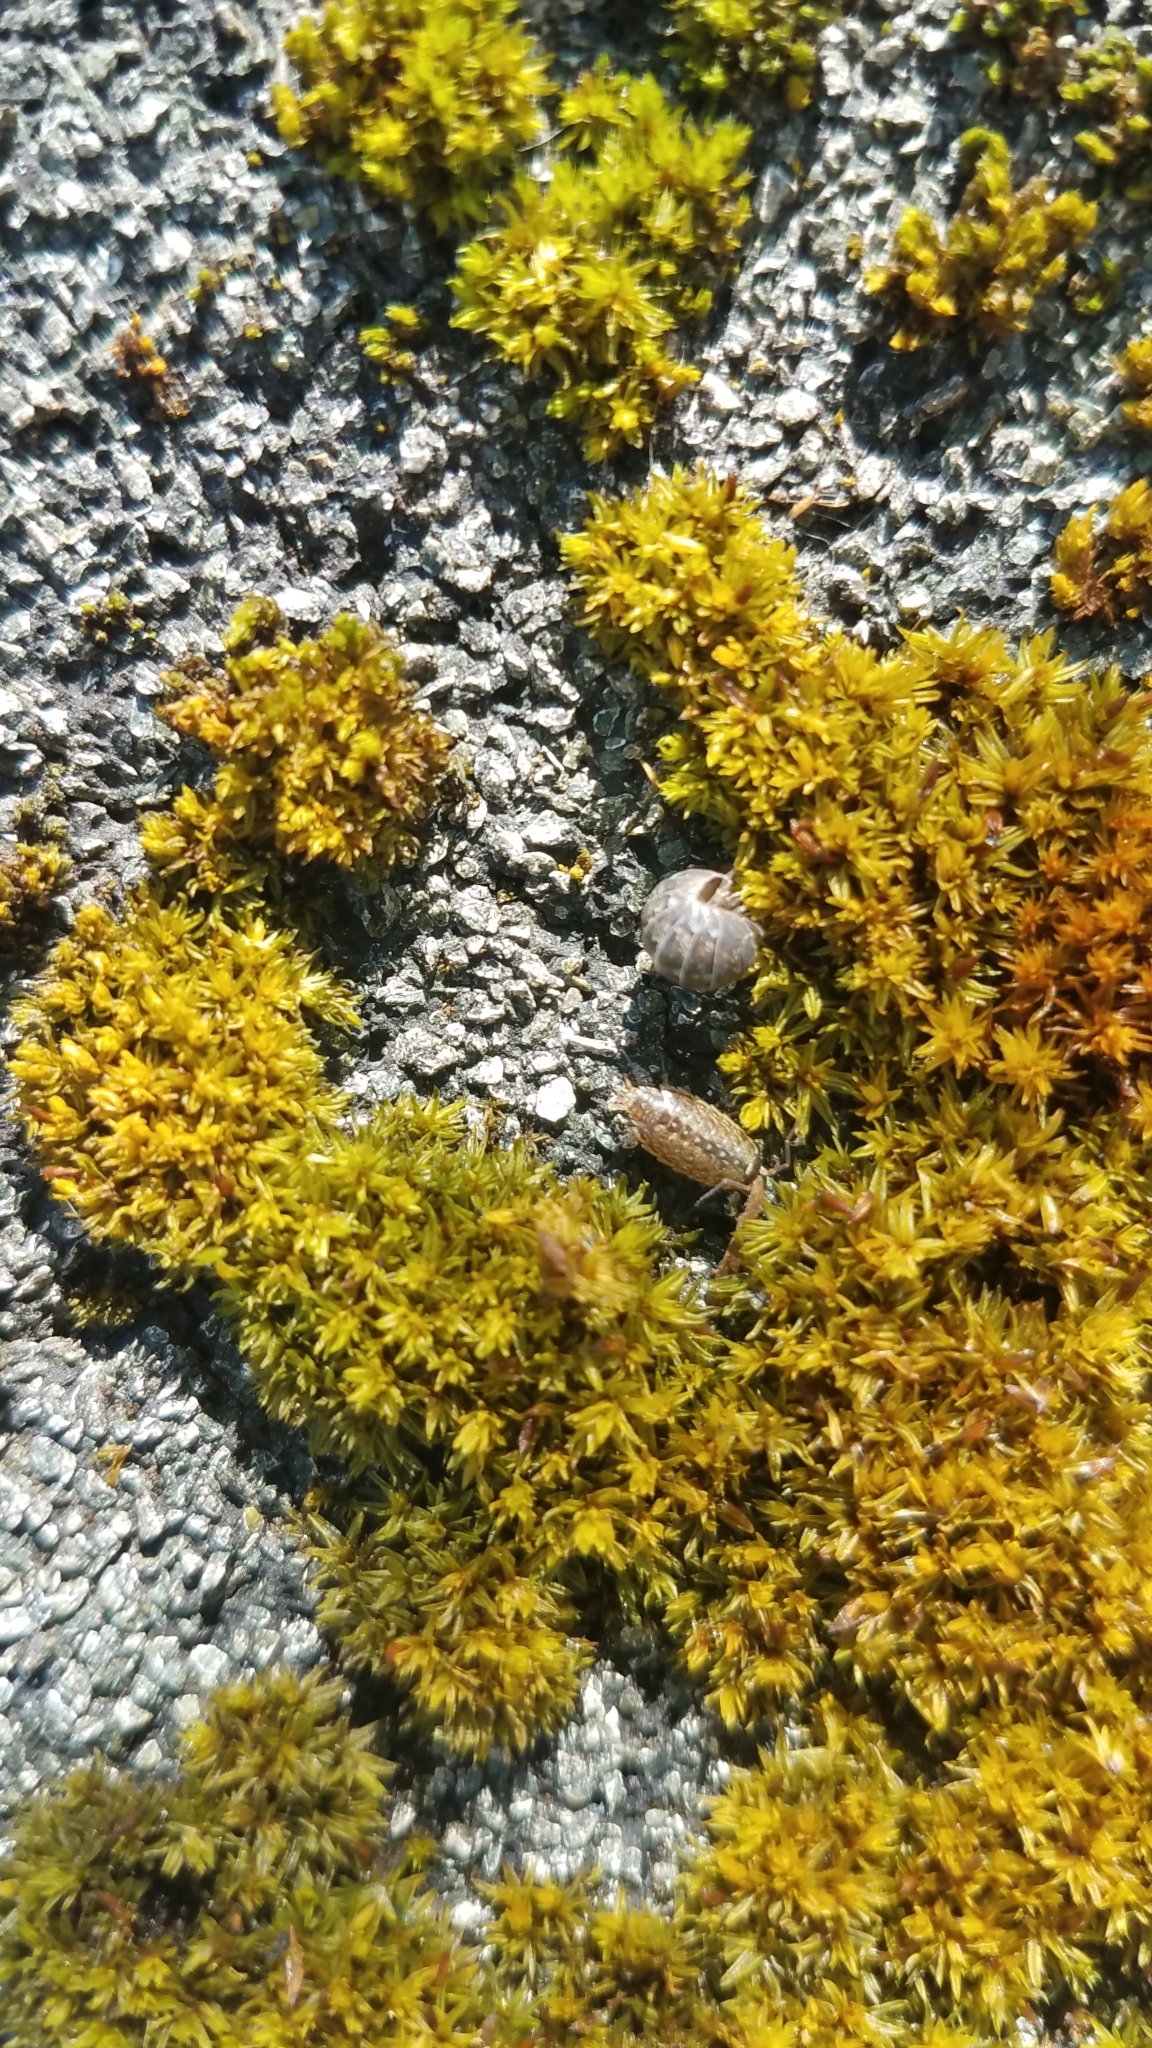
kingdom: Animalia
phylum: Arthropoda
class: Malacostraca
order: Isopoda
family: Armadillidiidae
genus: Armadillidium
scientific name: Armadillidium vulgare
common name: Common pill woodlouse
